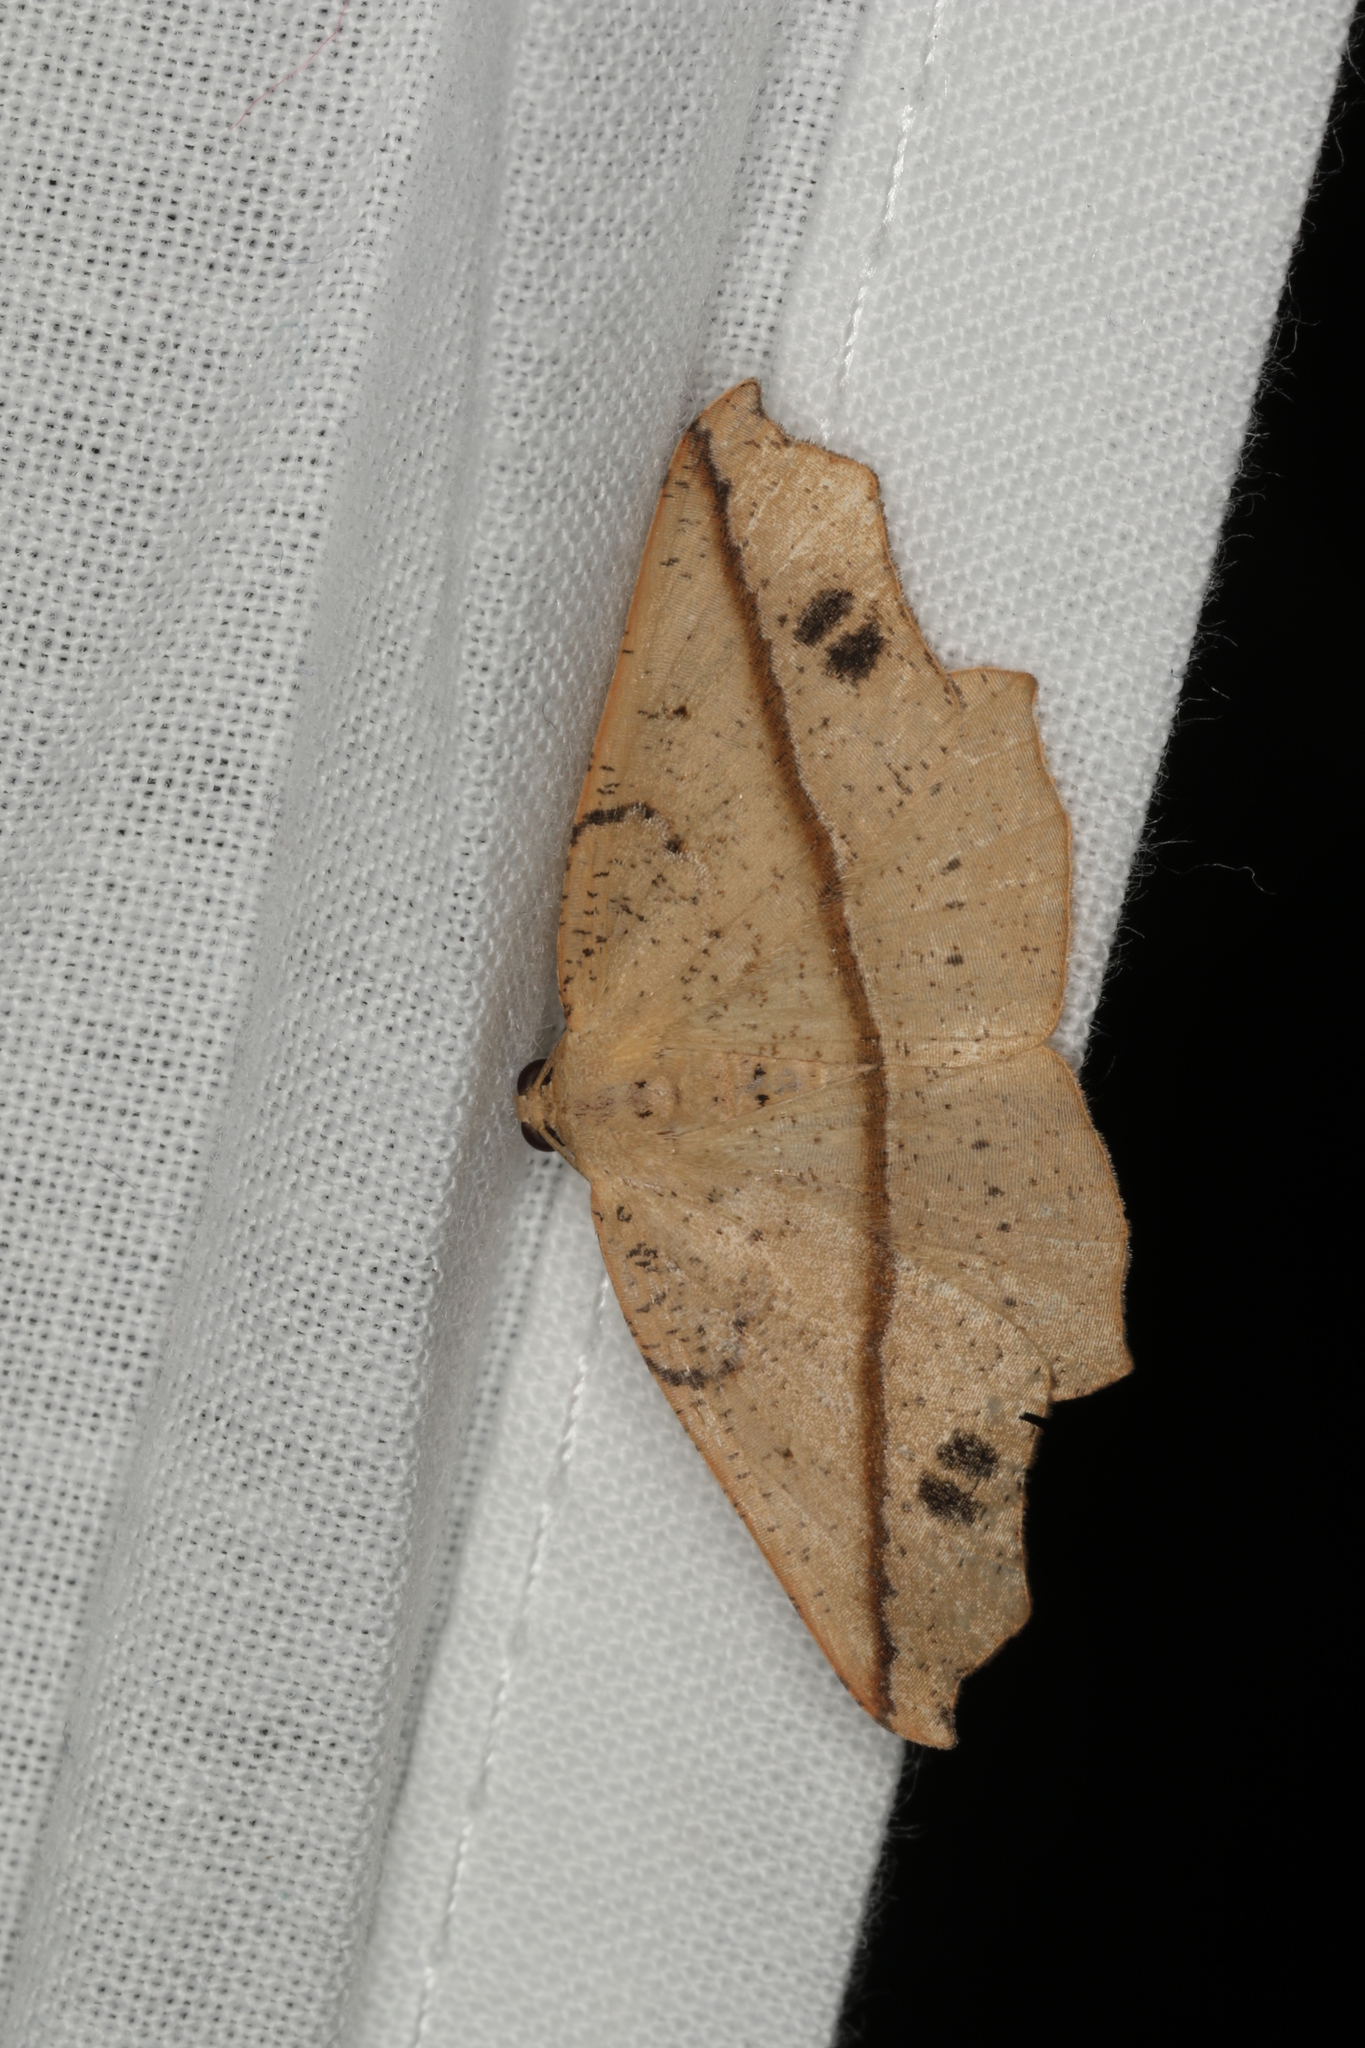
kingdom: Animalia
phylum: Arthropoda
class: Insecta
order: Lepidoptera
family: Geometridae
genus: Picrophylla
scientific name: Picrophylla hyleora
